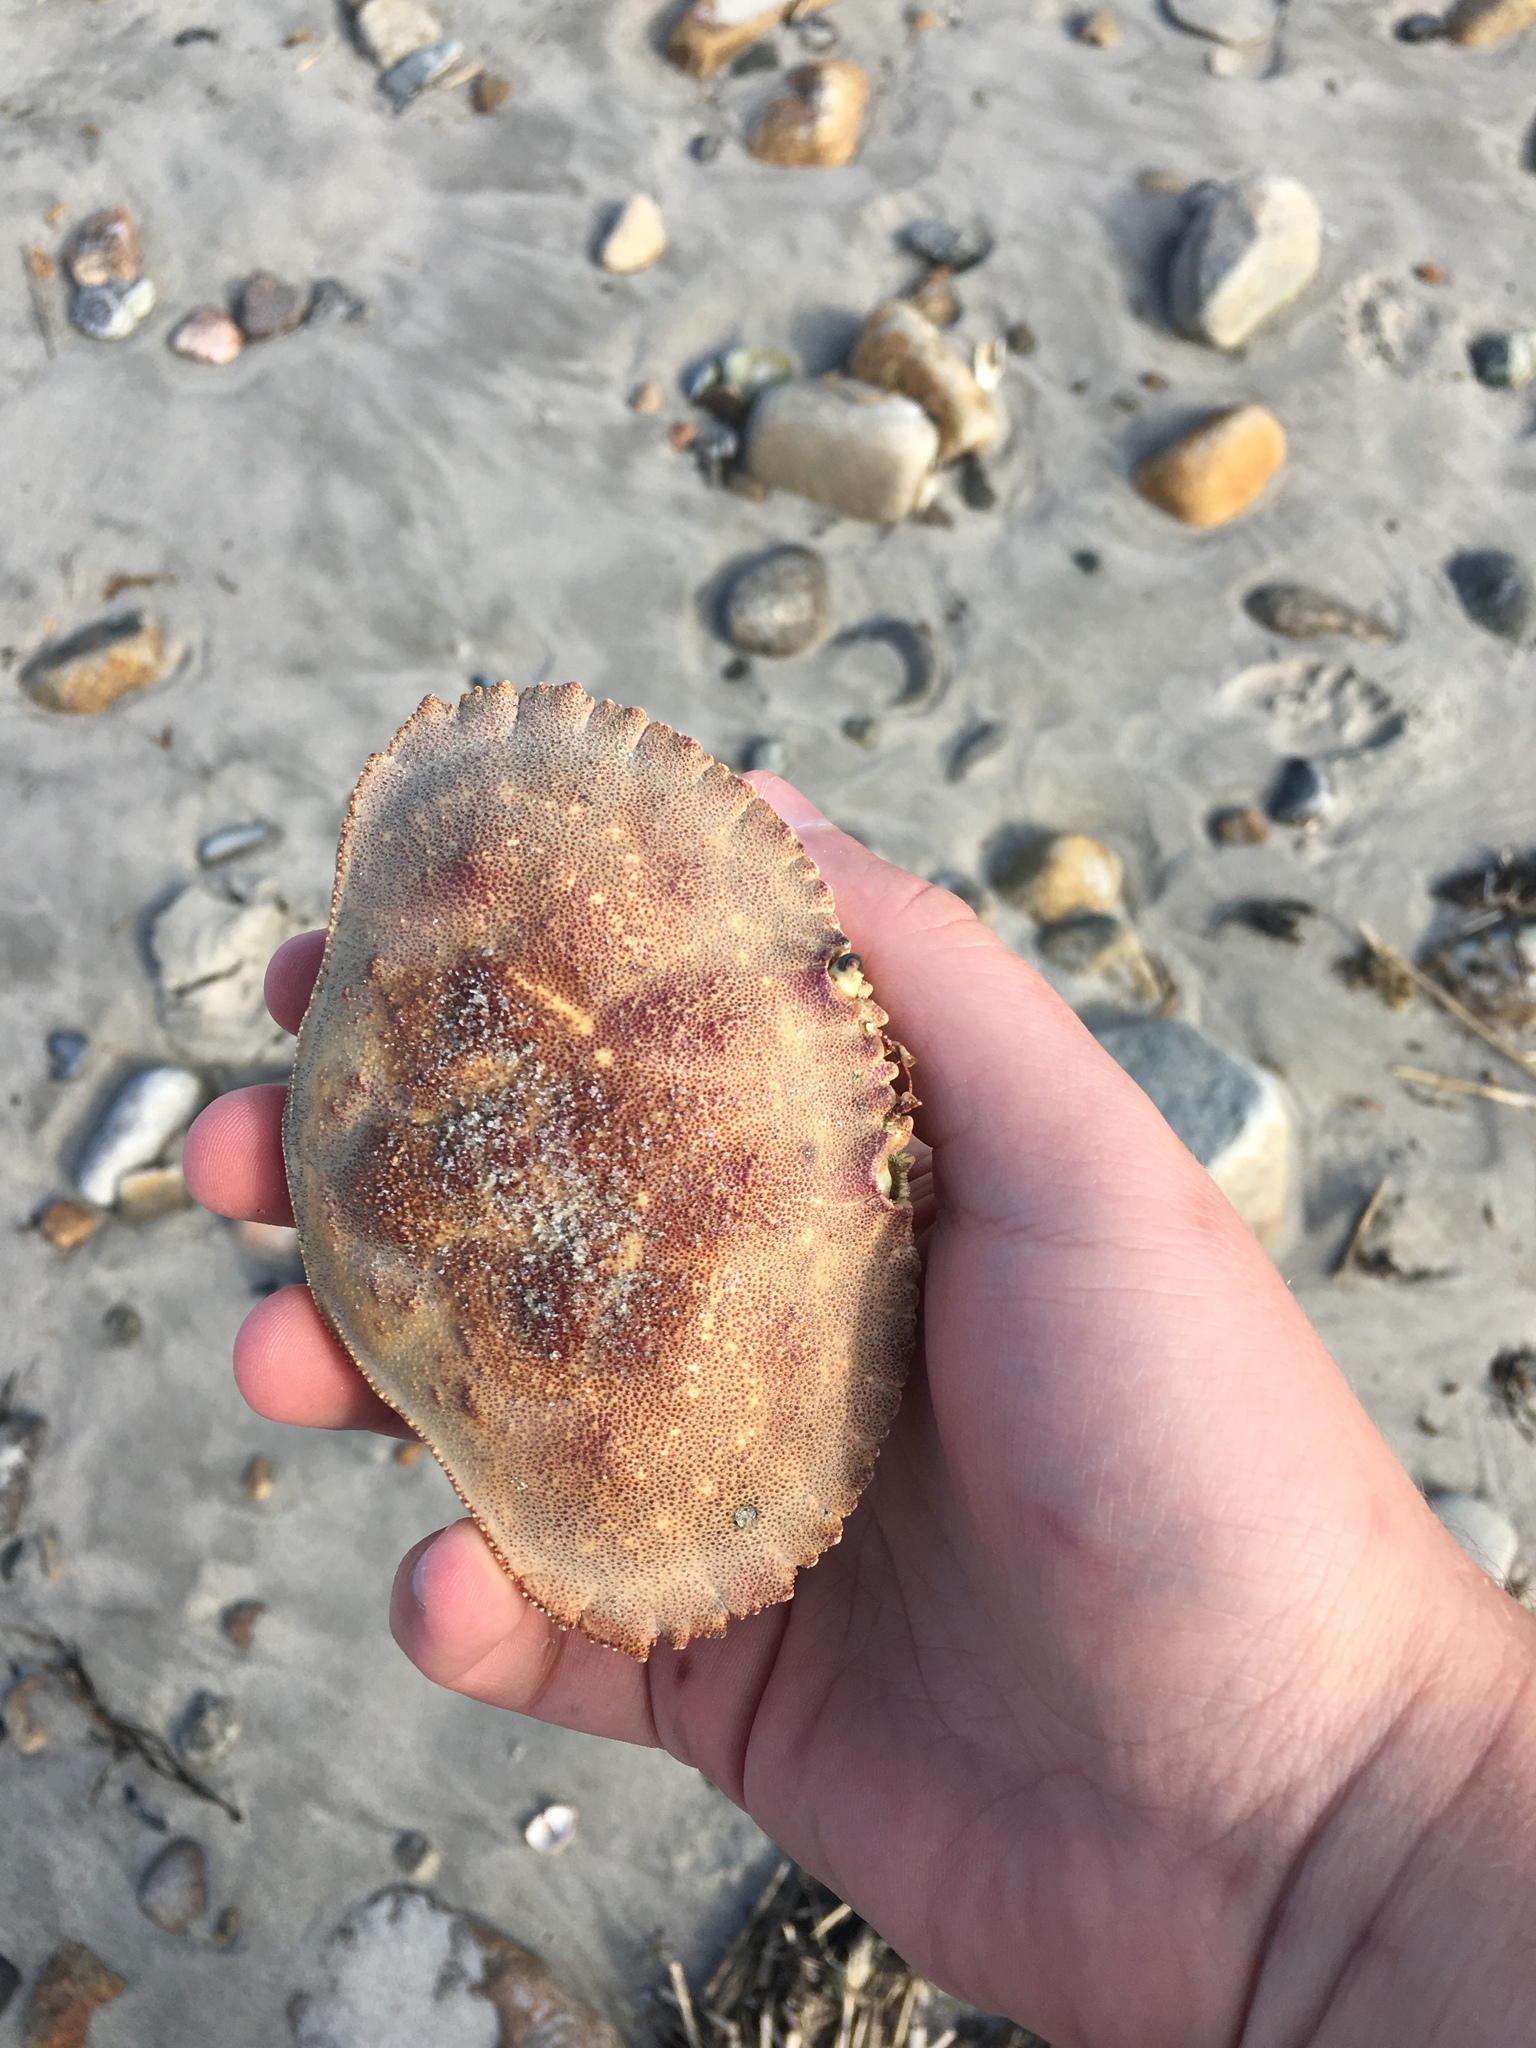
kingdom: Animalia
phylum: Arthropoda
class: Malacostraca
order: Decapoda
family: Cancridae
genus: Cancer
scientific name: Cancer borealis
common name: Jonah crab
